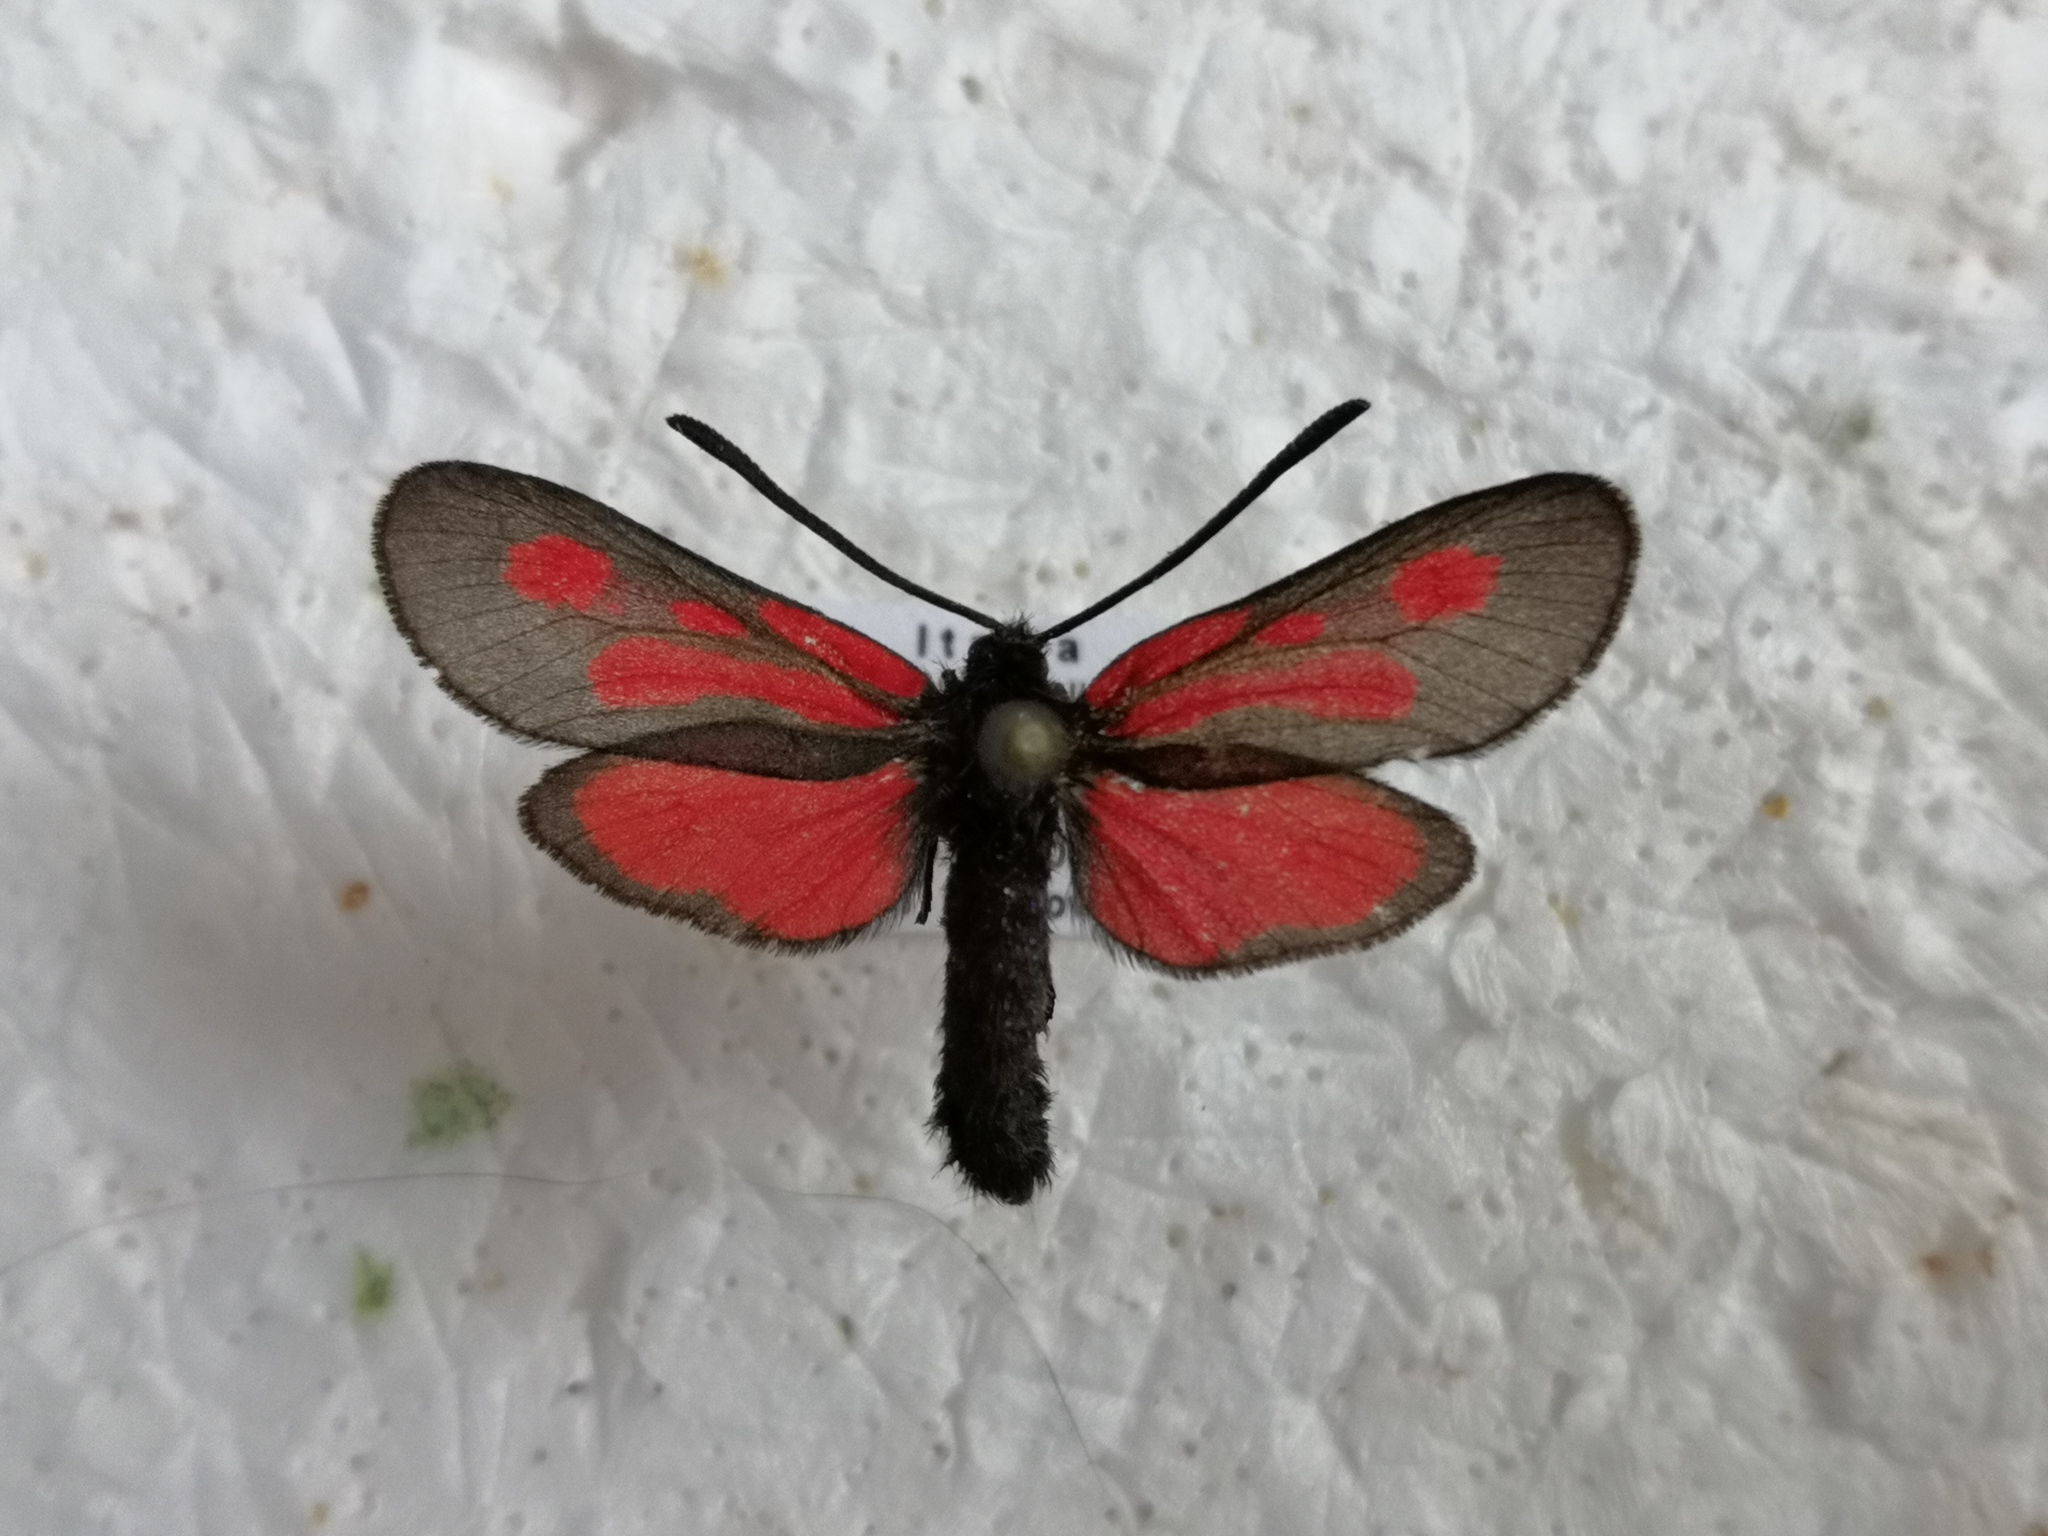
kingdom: Animalia
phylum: Arthropoda
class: Insecta
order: Lepidoptera
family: Zygaenidae
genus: Zygaena
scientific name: Zygaena romeo
